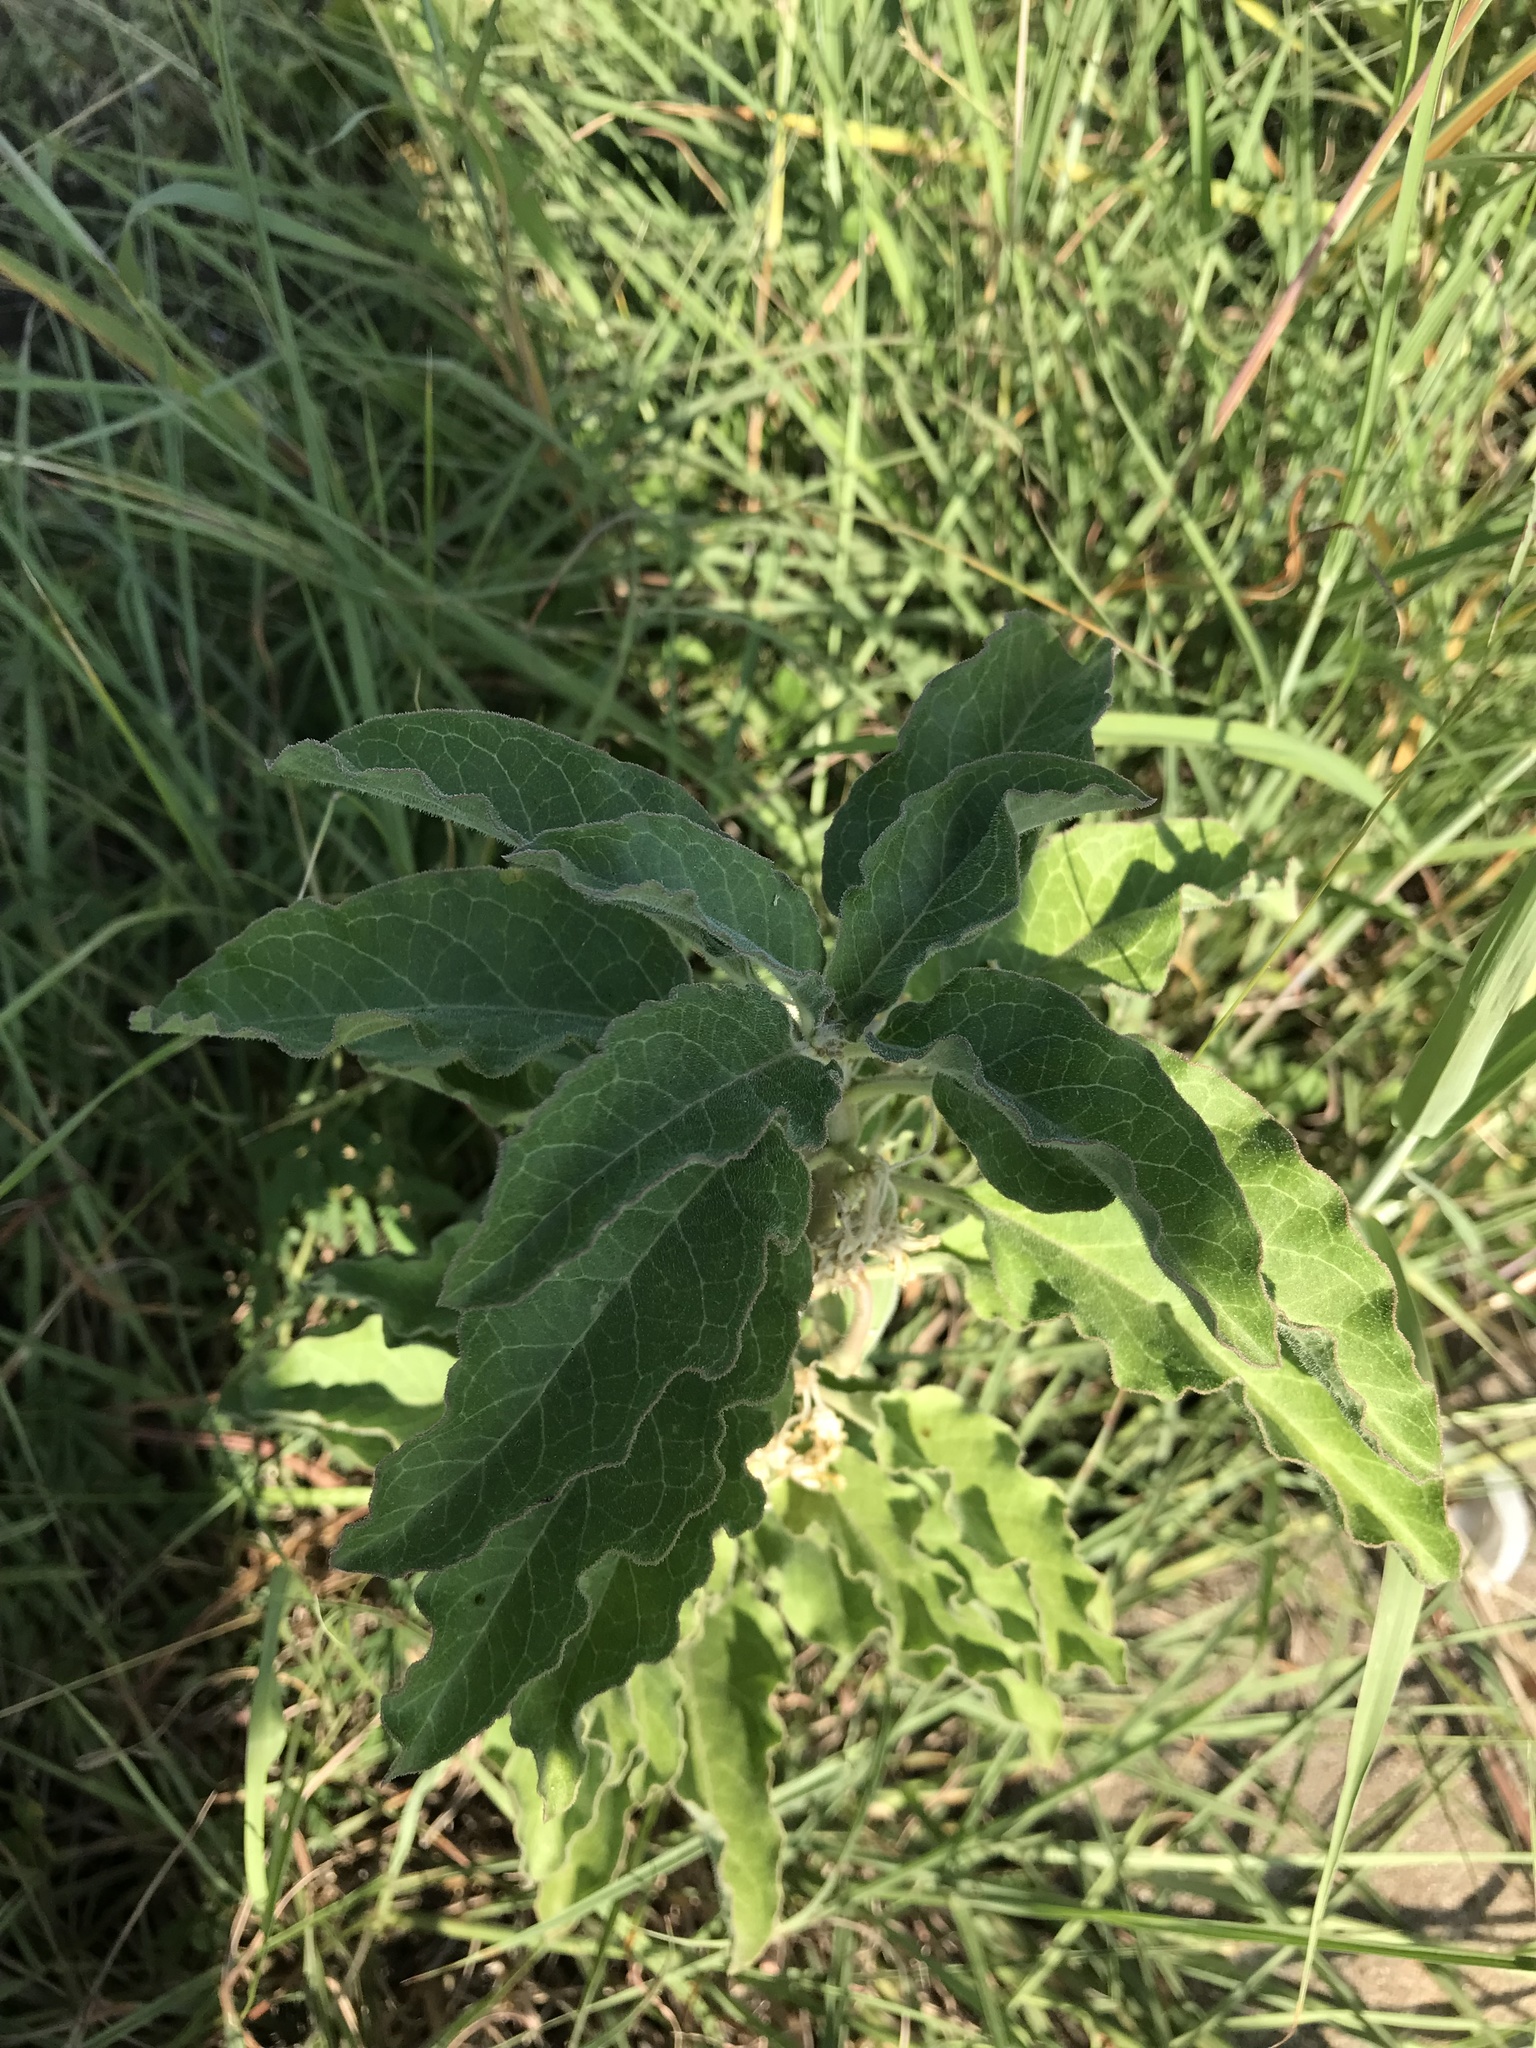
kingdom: Plantae
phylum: Tracheophyta
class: Magnoliopsida
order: Gentianales
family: Apocynaceae
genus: Asclepias
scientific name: Asclepias oenotheroides
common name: Zizotes milkweed
